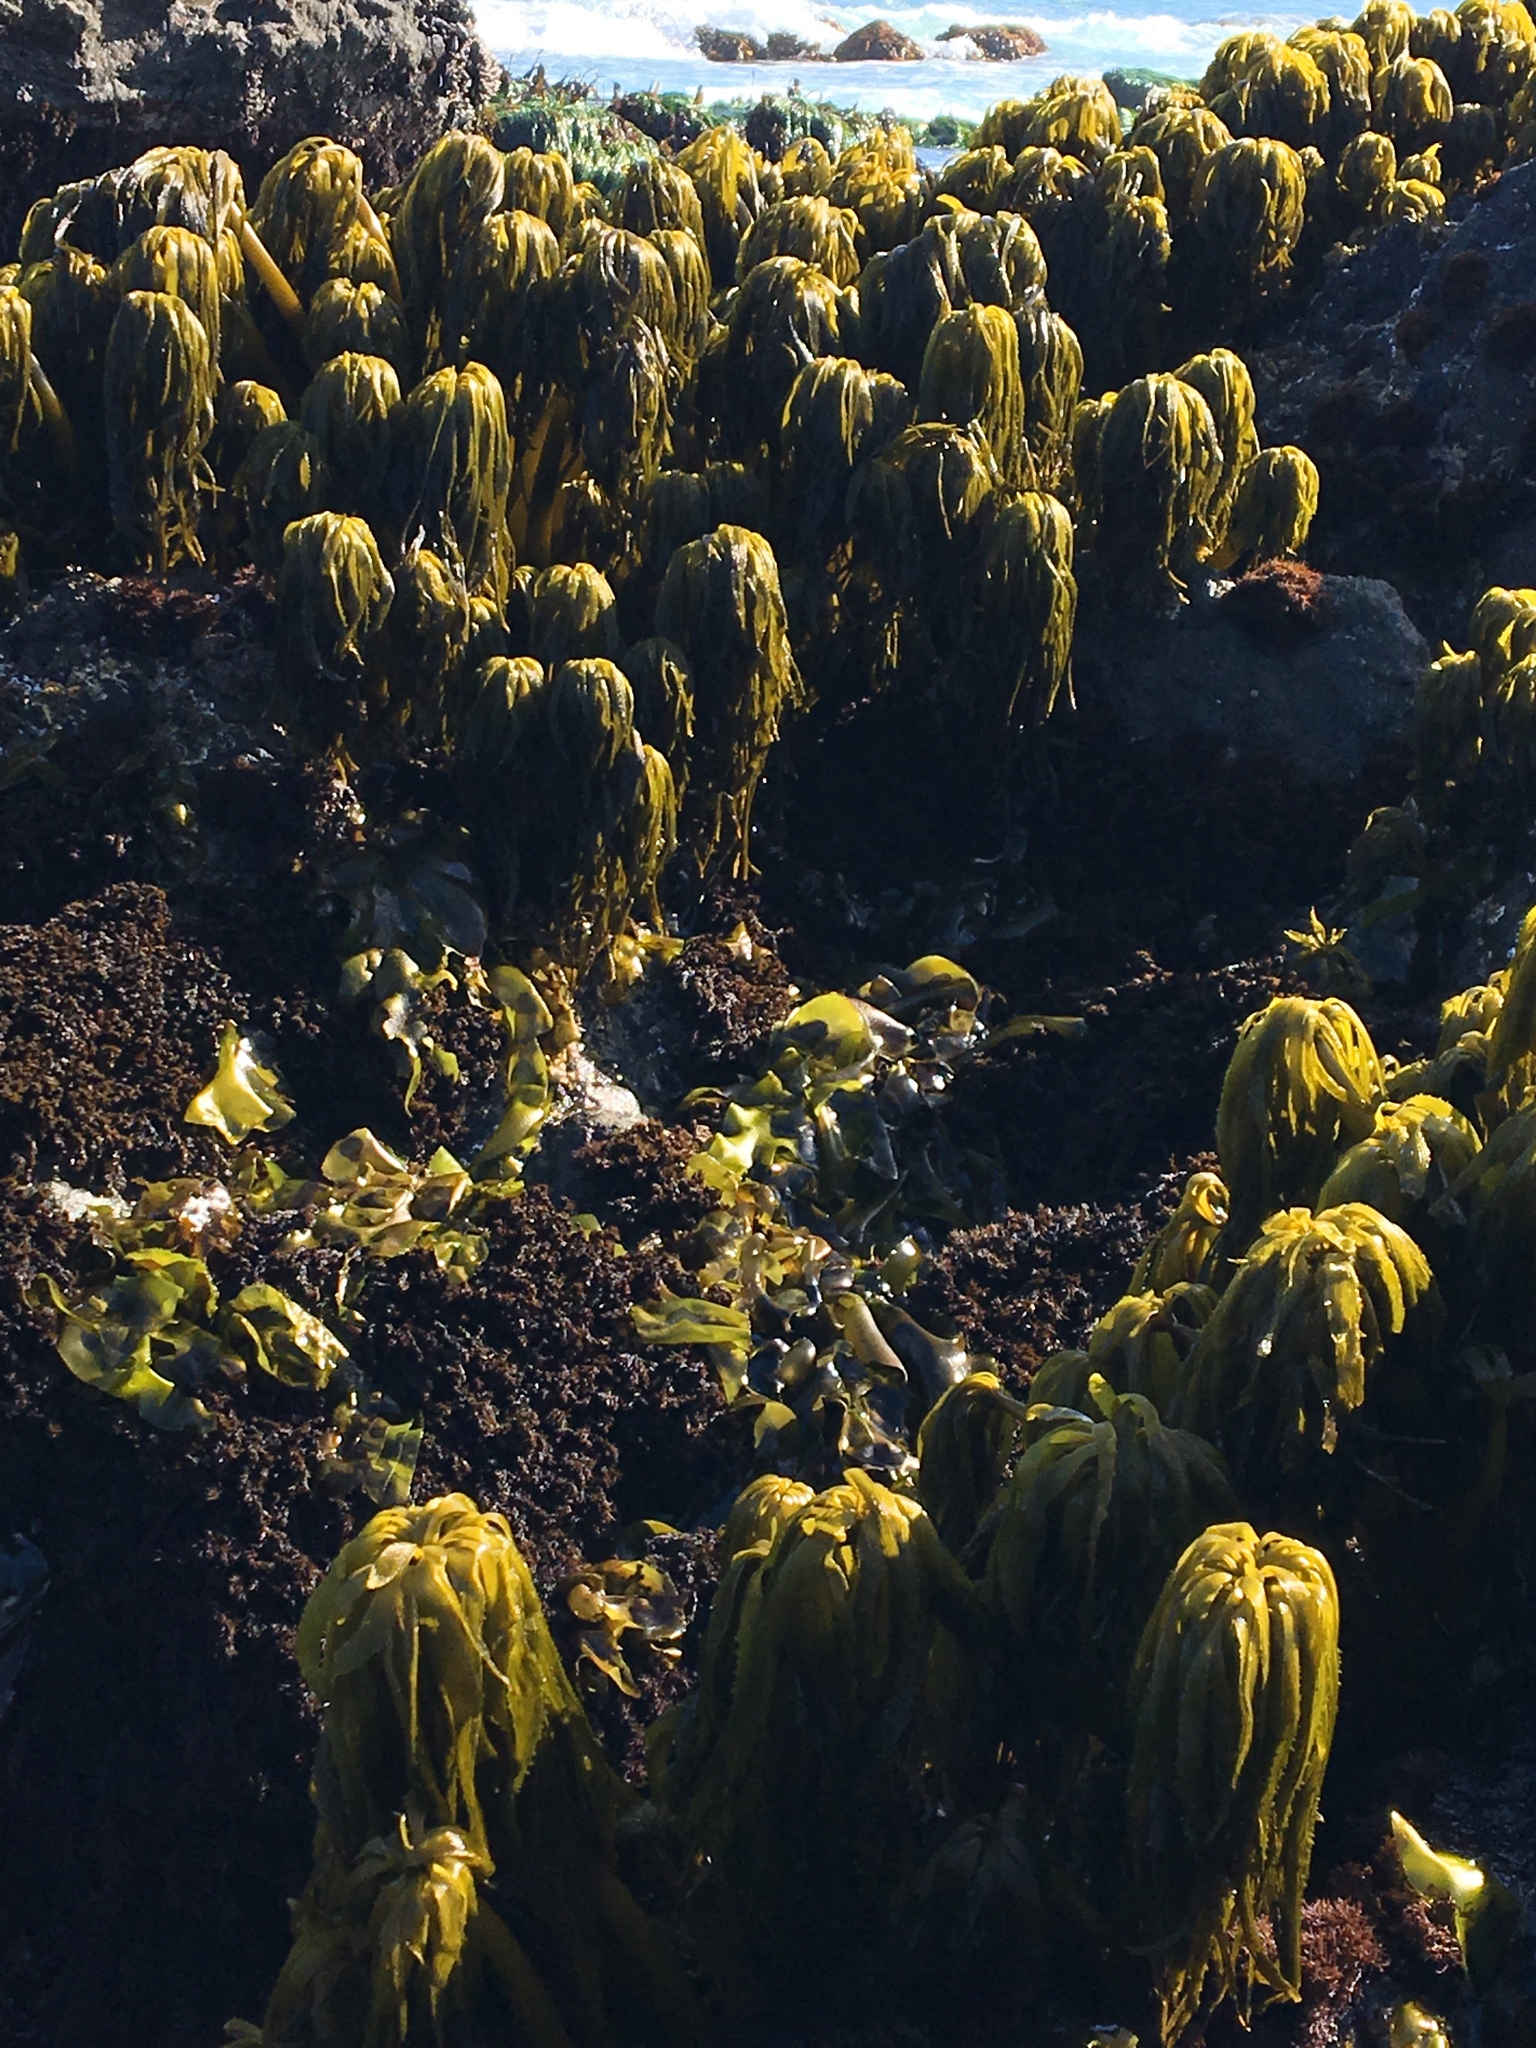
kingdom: Chromista
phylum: Ochrophyta
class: Phaeophyceae
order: Laminariales
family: Laminariaceae
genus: Postelsia
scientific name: Postelsia palmiformis
